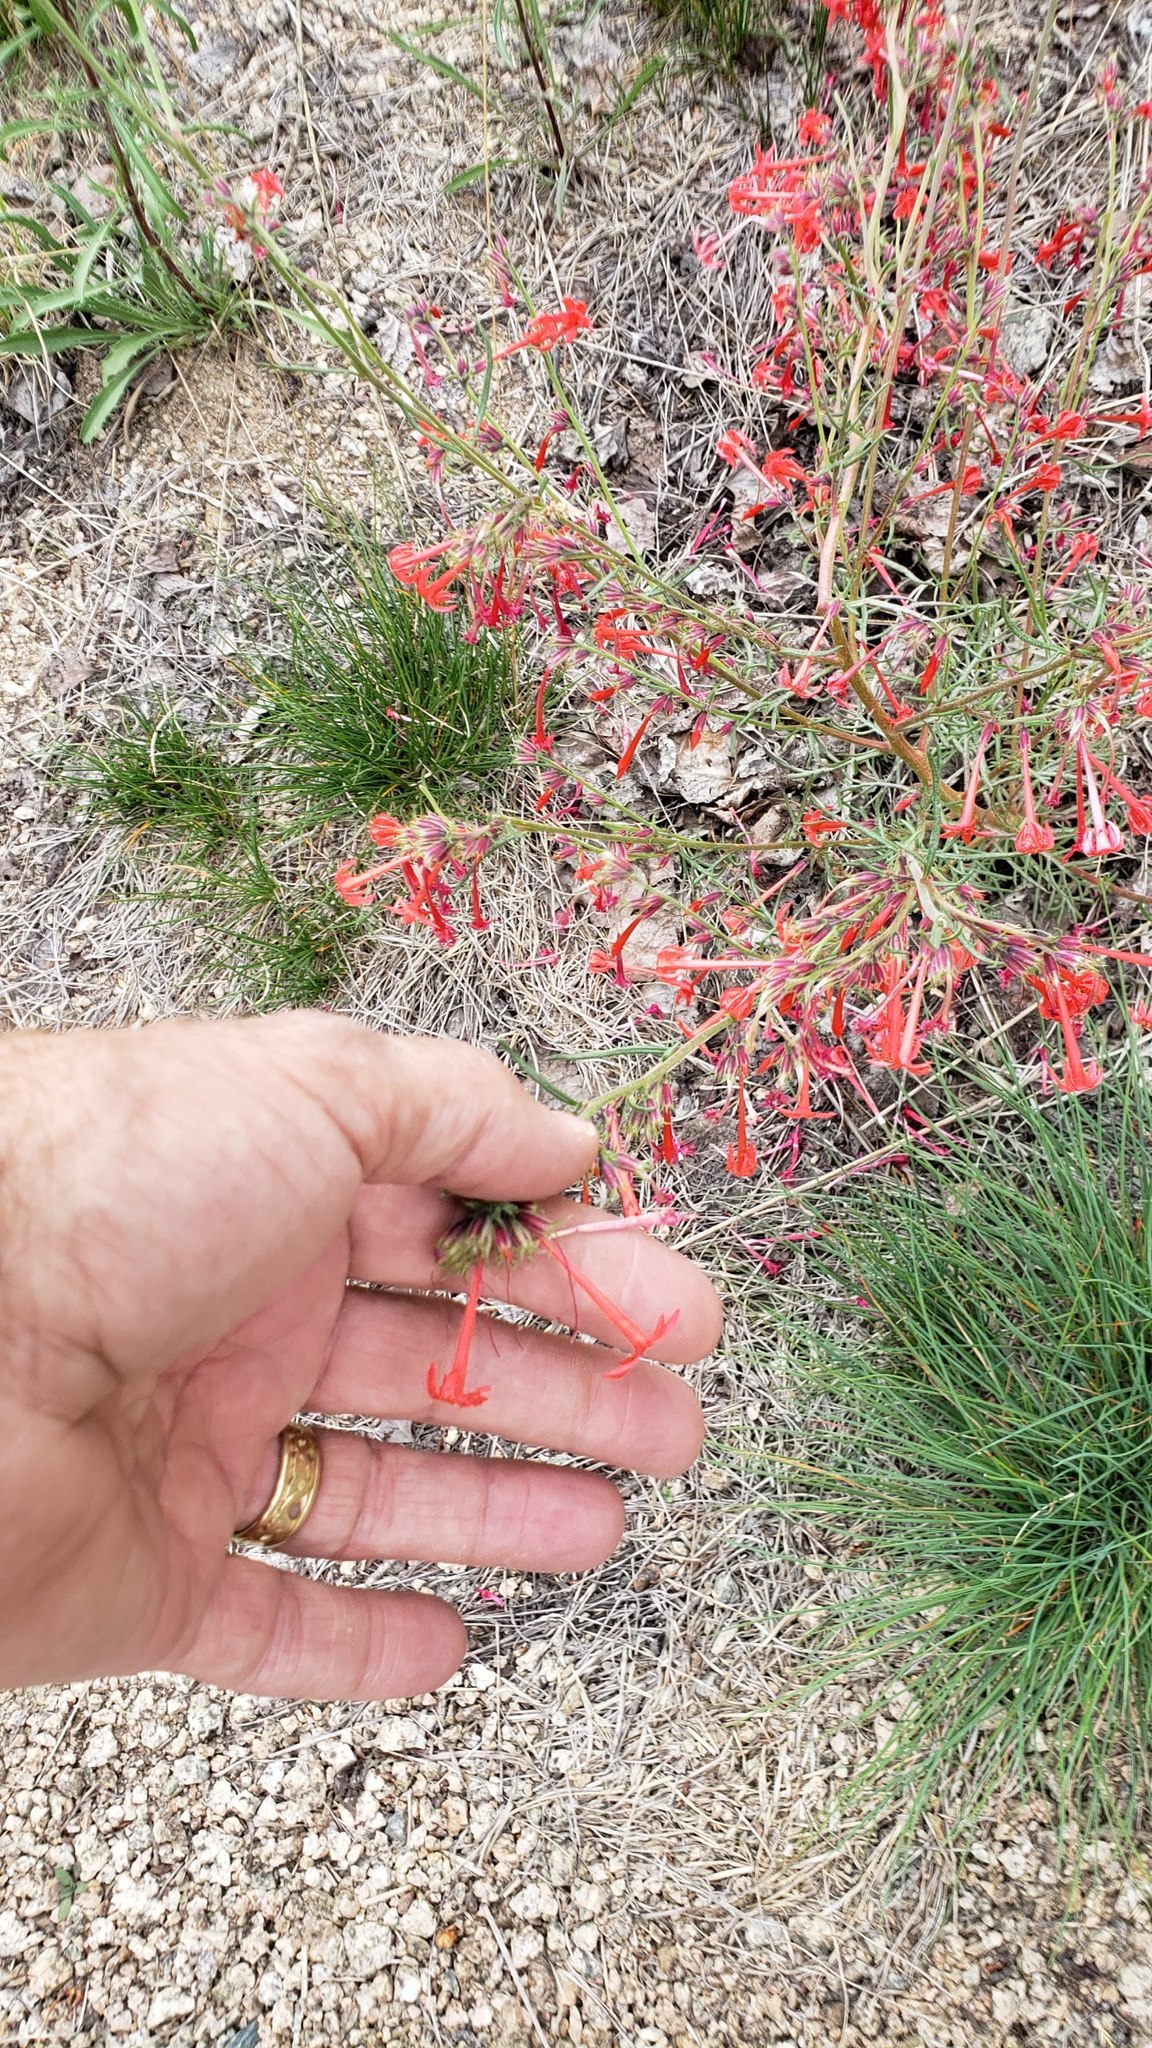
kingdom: Plantae
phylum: Tracheophyta
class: Magnoliopsida
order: Ericales
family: Polemoniaceae
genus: Ipomopsis
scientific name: Ipomopsis aggregata
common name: Scarlet gilia
